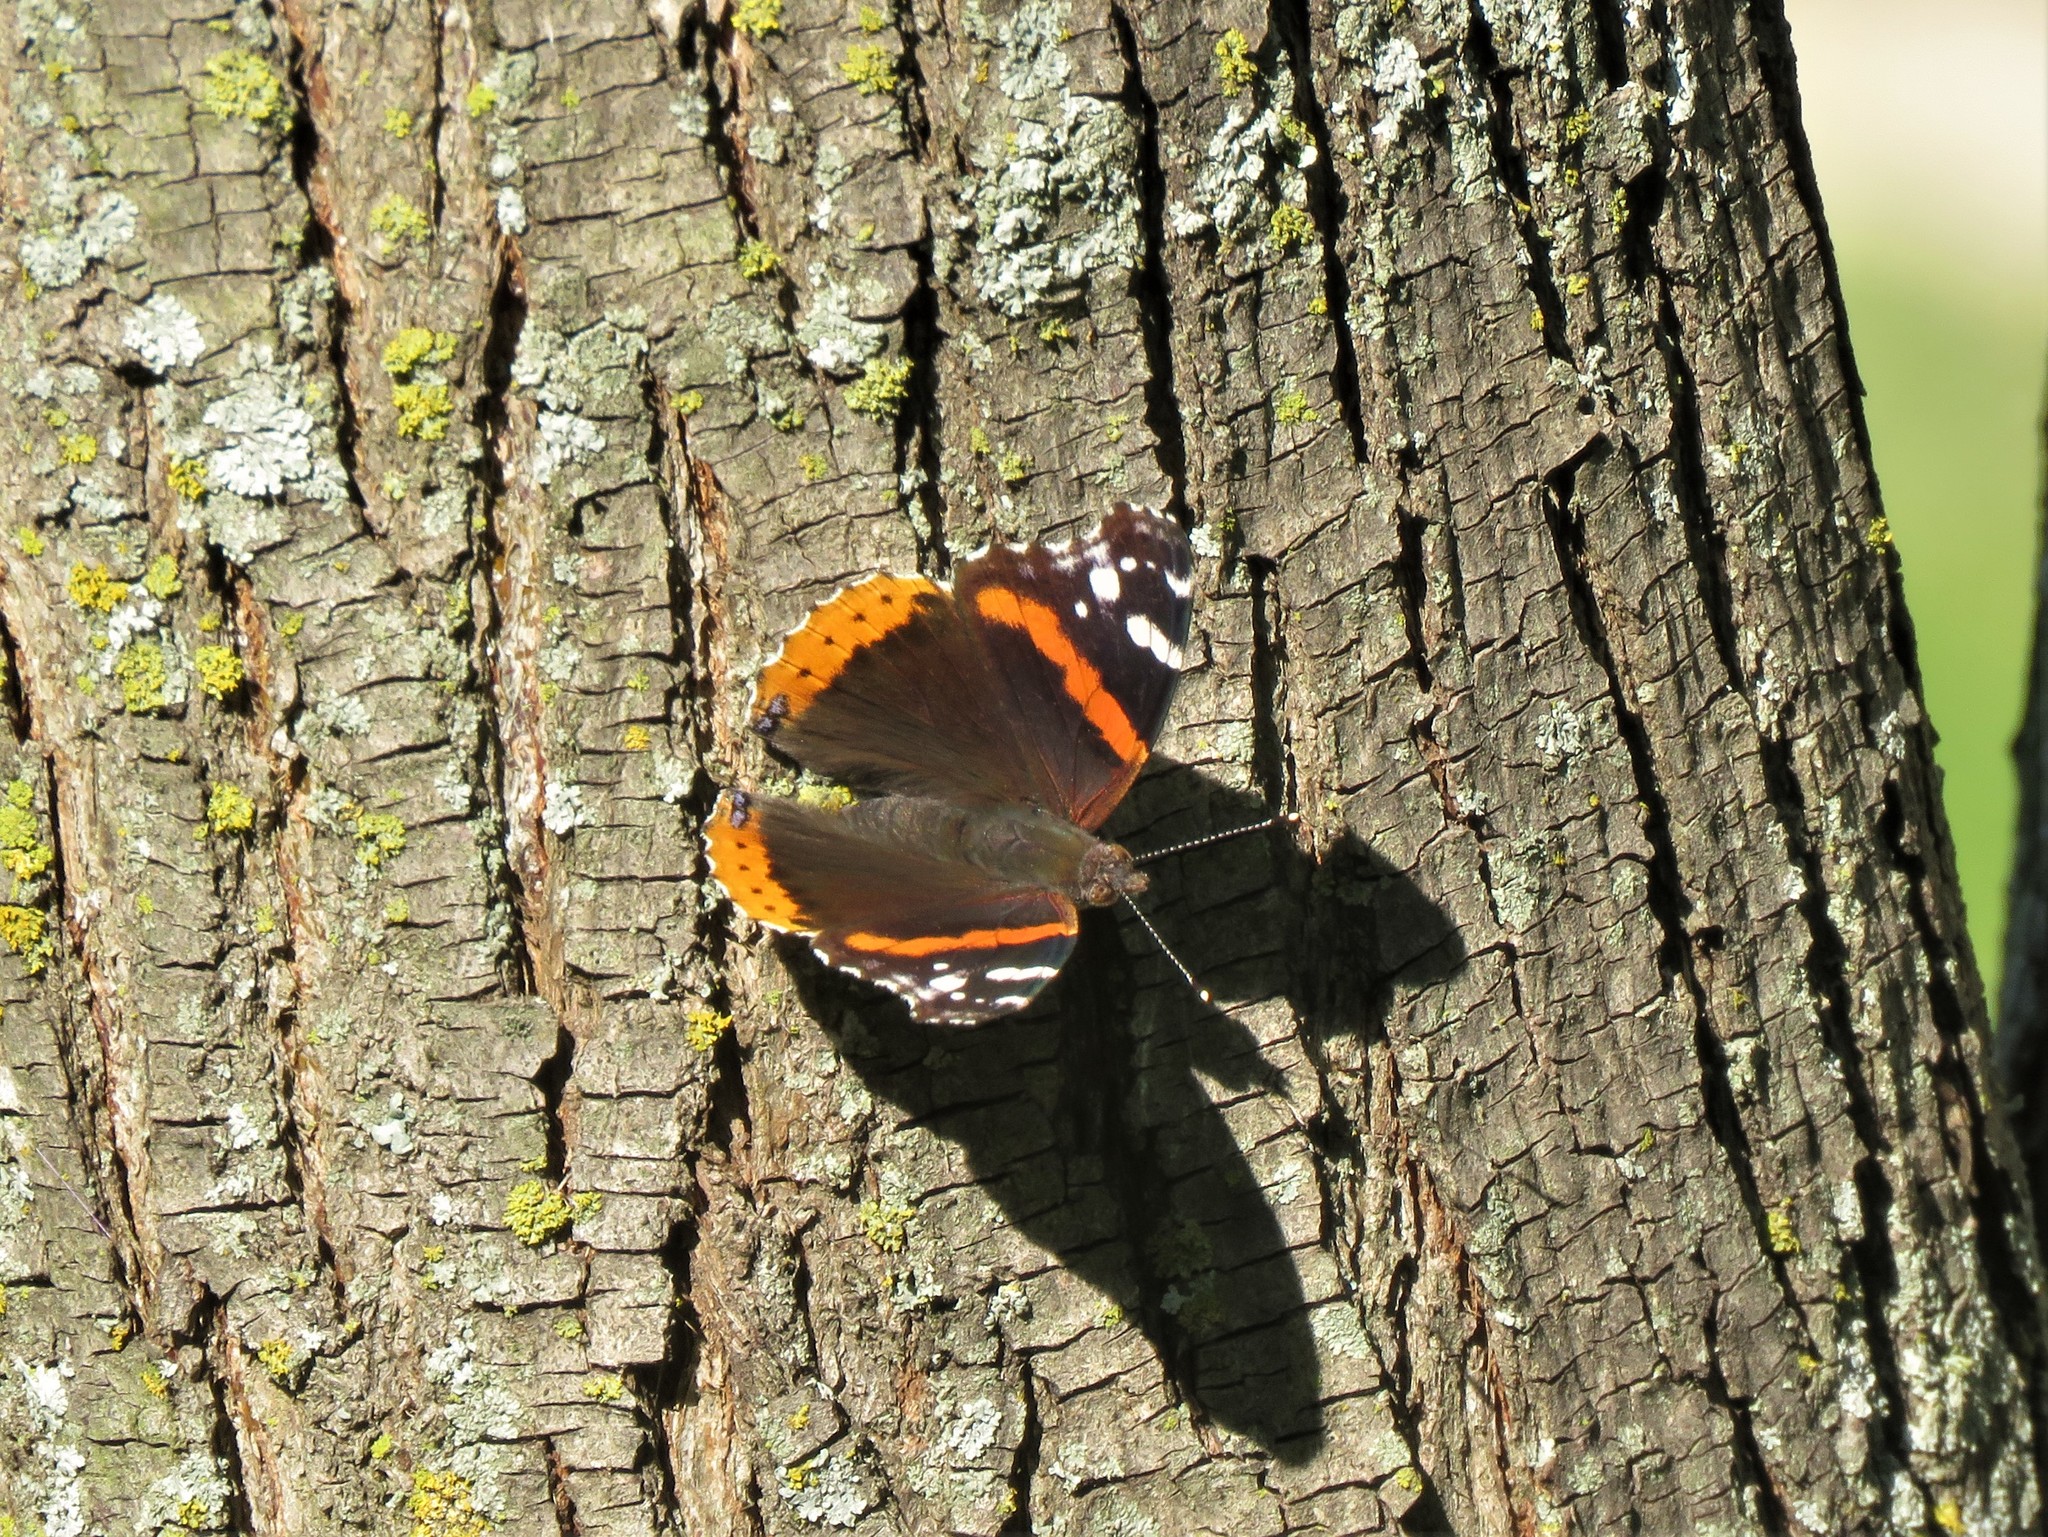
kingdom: Animalia
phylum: Arthropoda
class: Insecta
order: Lepidoptera
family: Nymphalidae
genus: Vanessa
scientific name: Vanessa atalanta
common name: Red admiral
